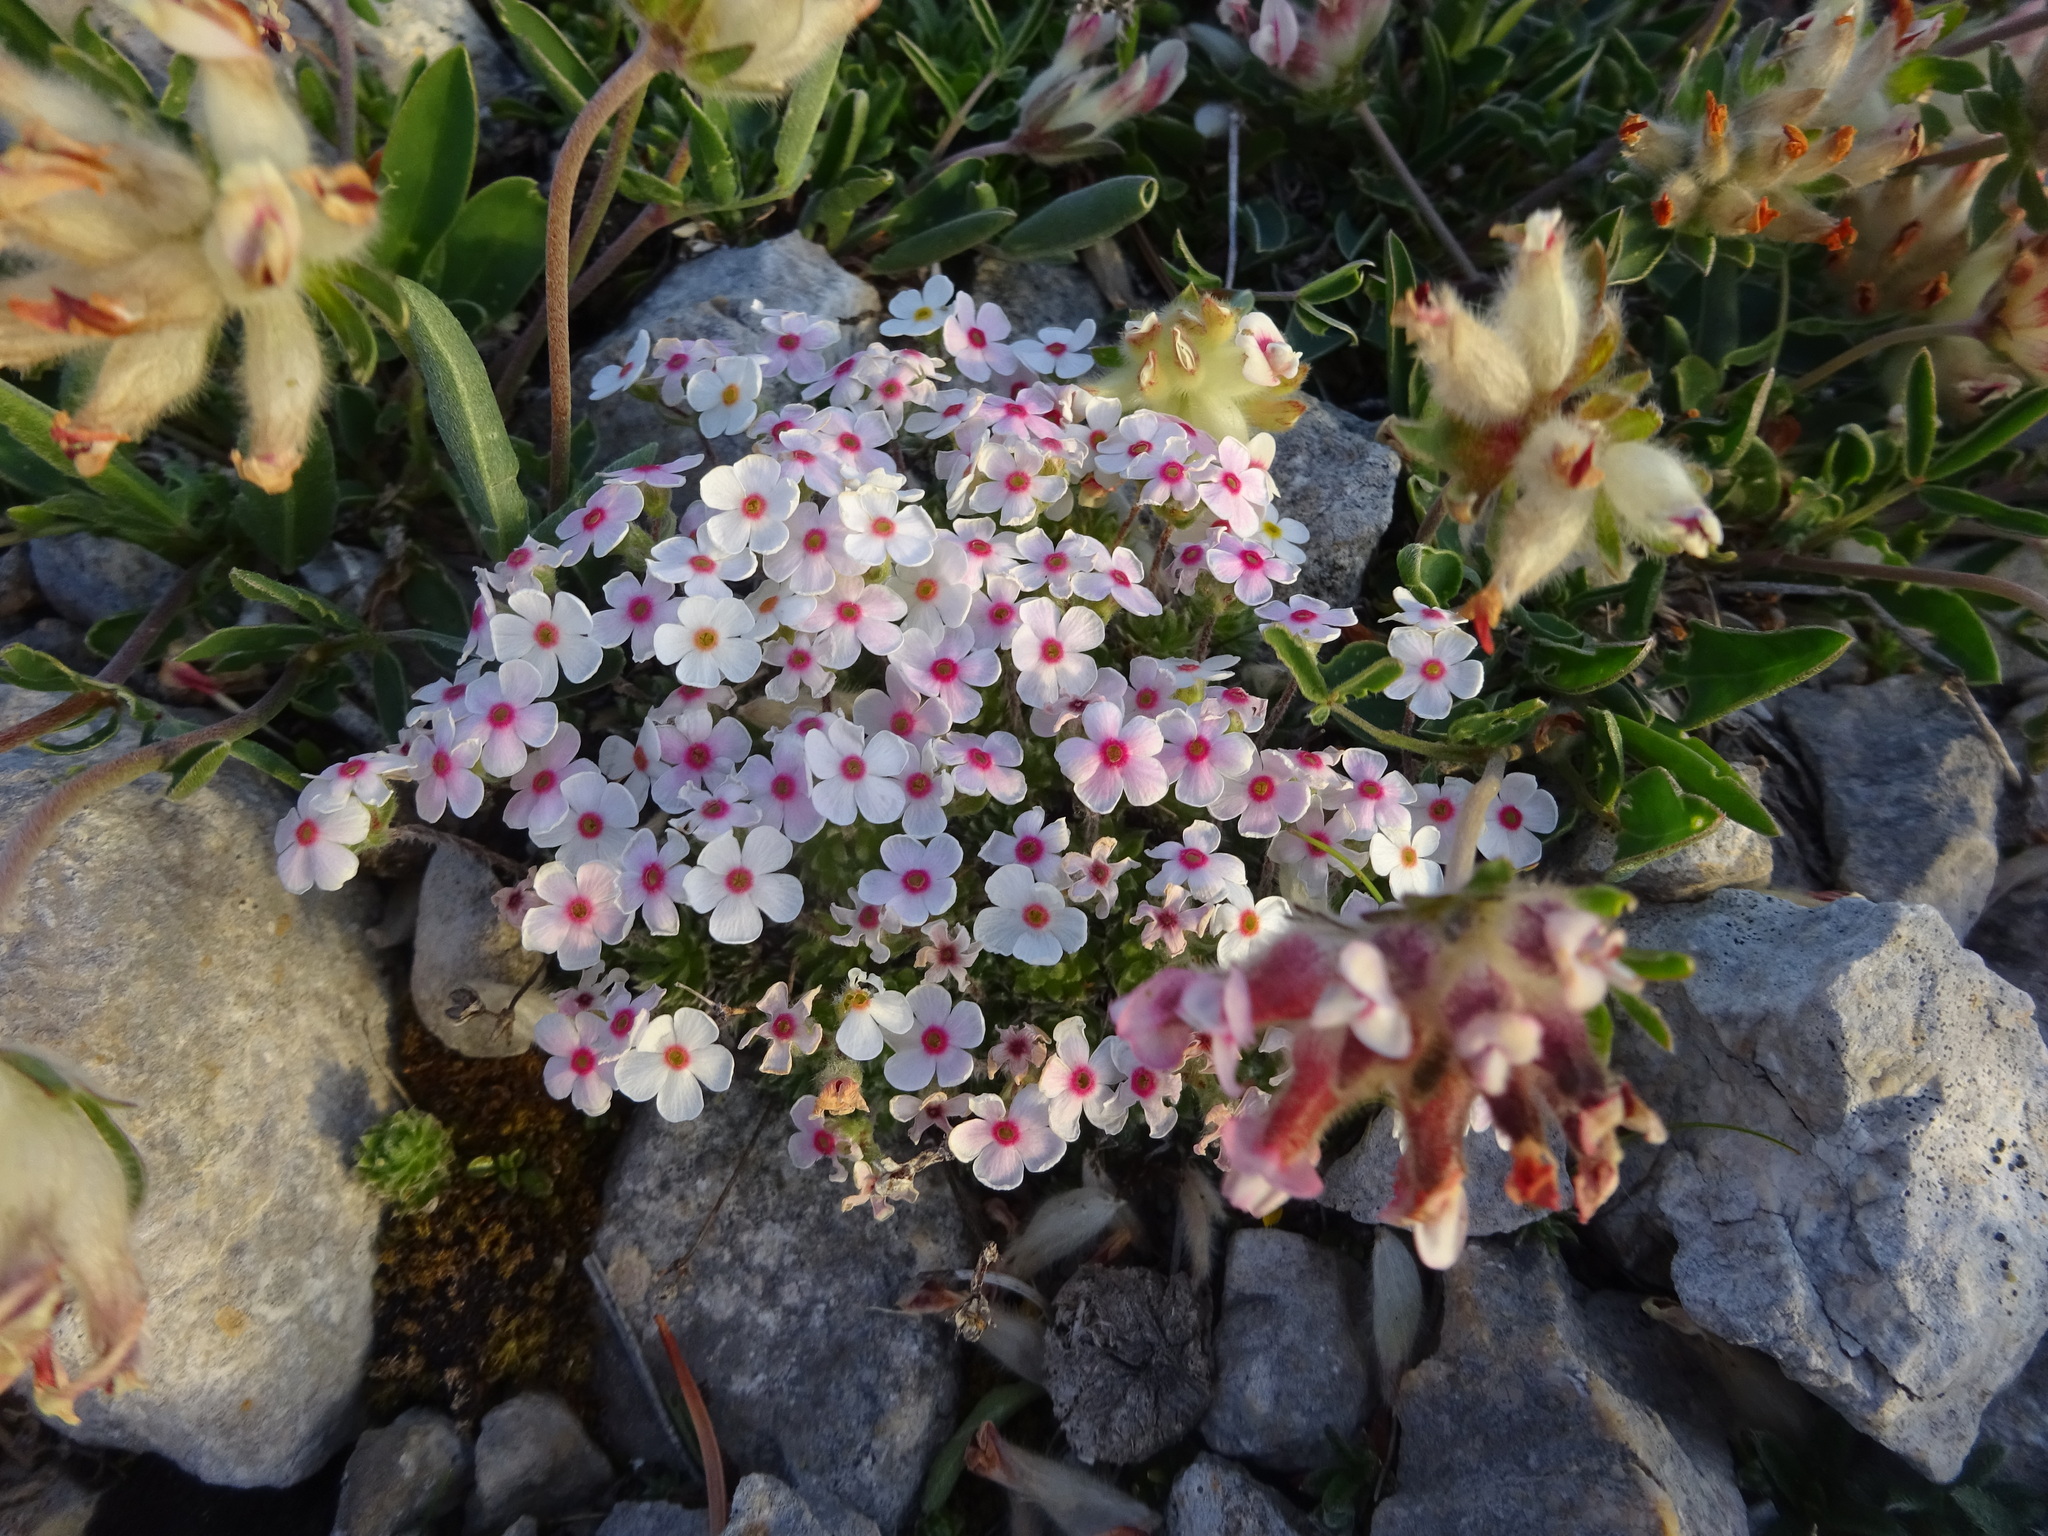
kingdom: Plantae
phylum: Tracheophyta
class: Magnoliopsida
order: Ericales
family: Primulaceae
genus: Androsace
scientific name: Androsace villosa
